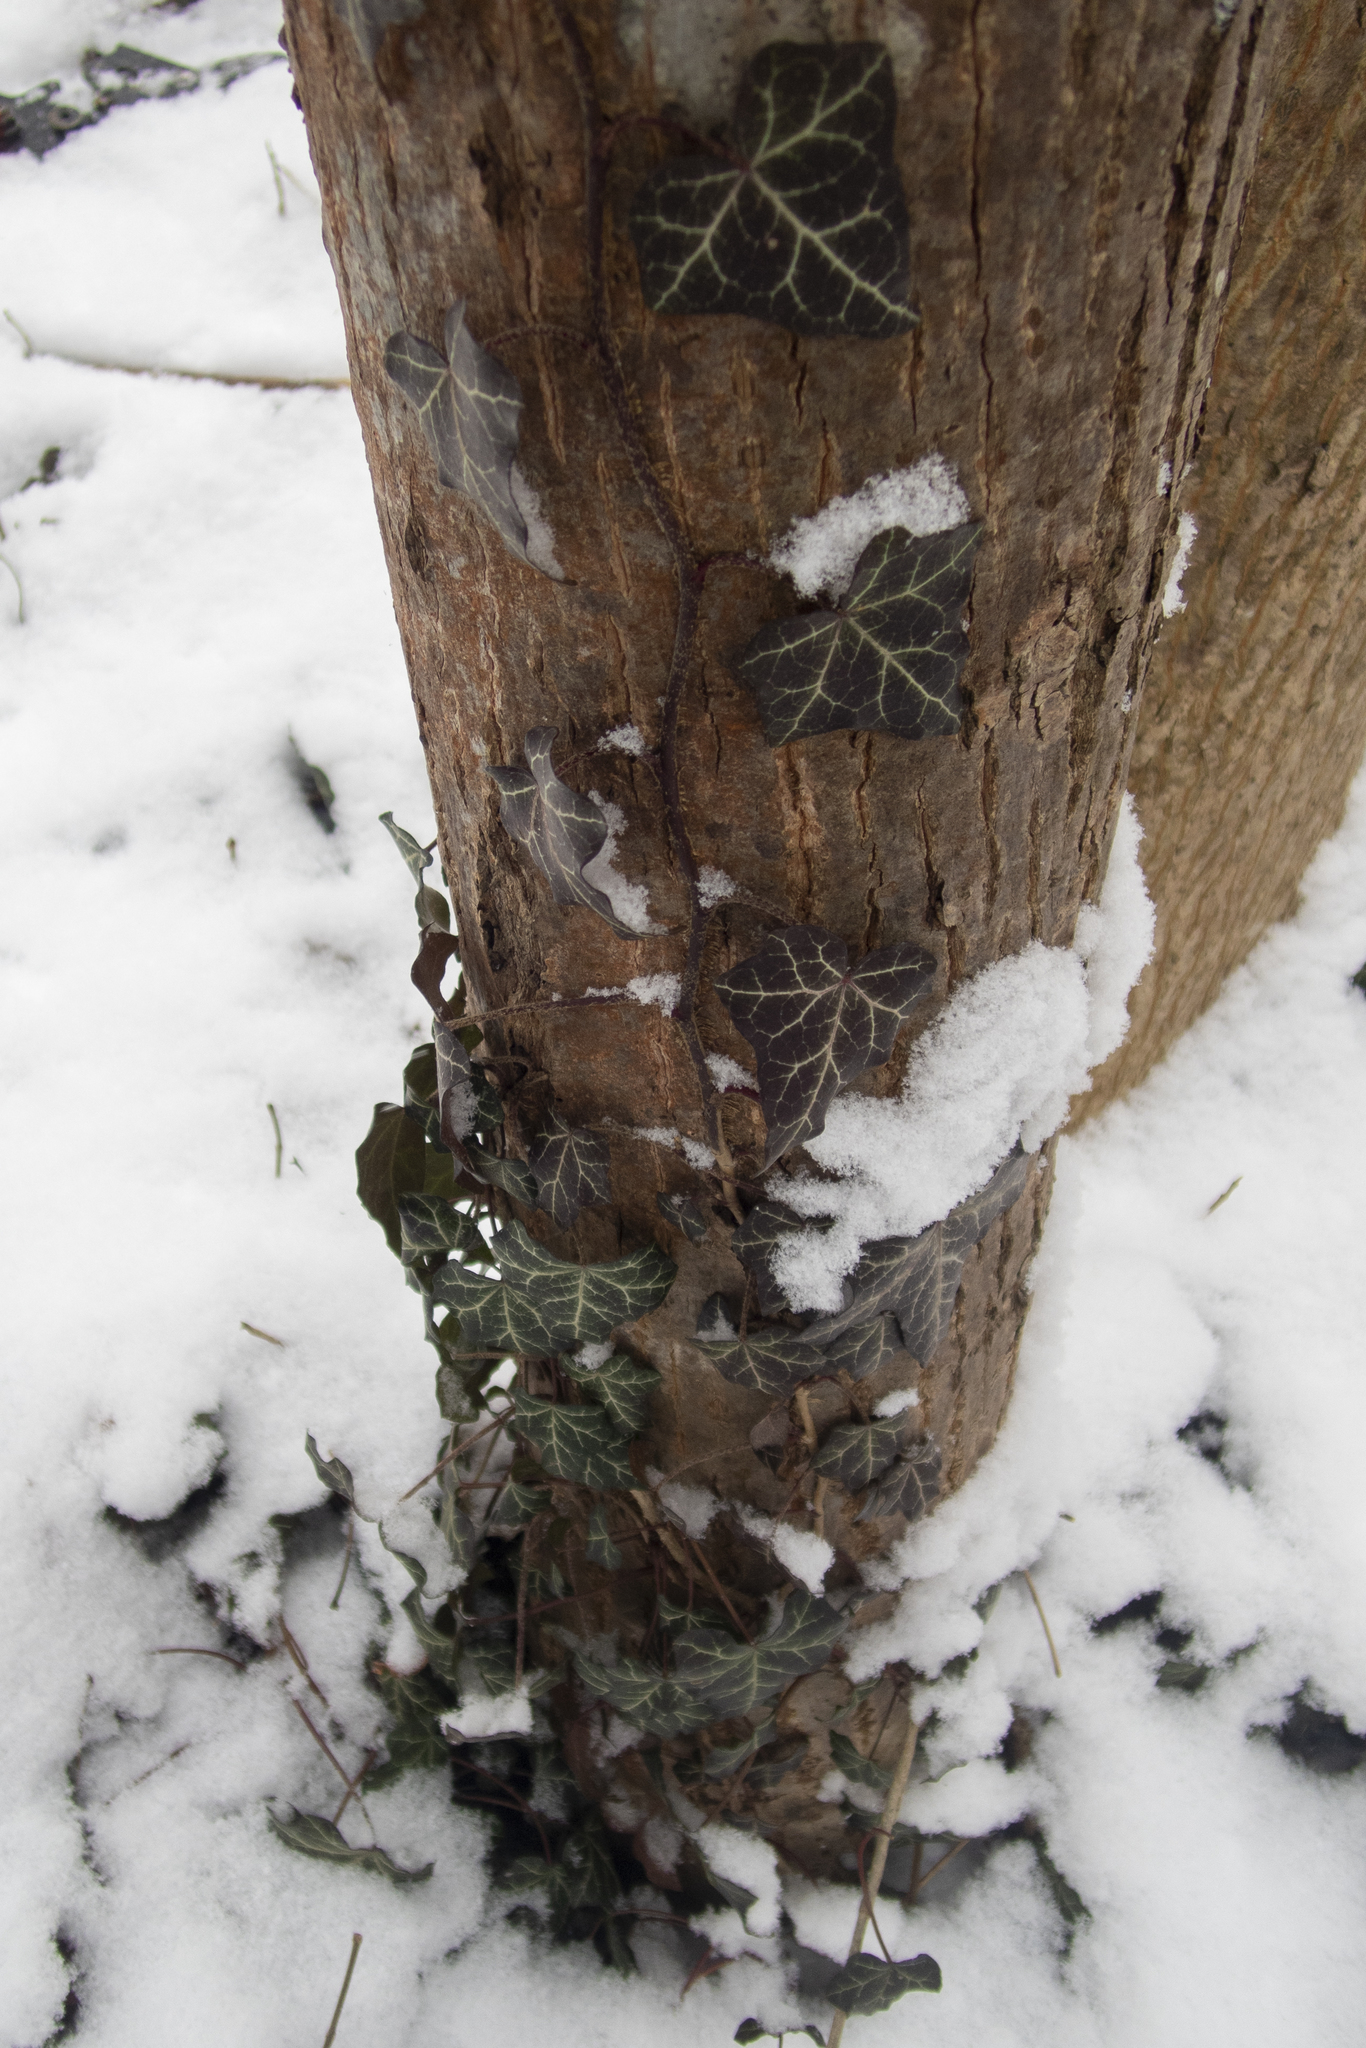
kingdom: Plantae
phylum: Tracheophyta
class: Magnoliopsida
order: Apiales
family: Araliaceae
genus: Hedera
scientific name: Hedera helix
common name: Ivy
